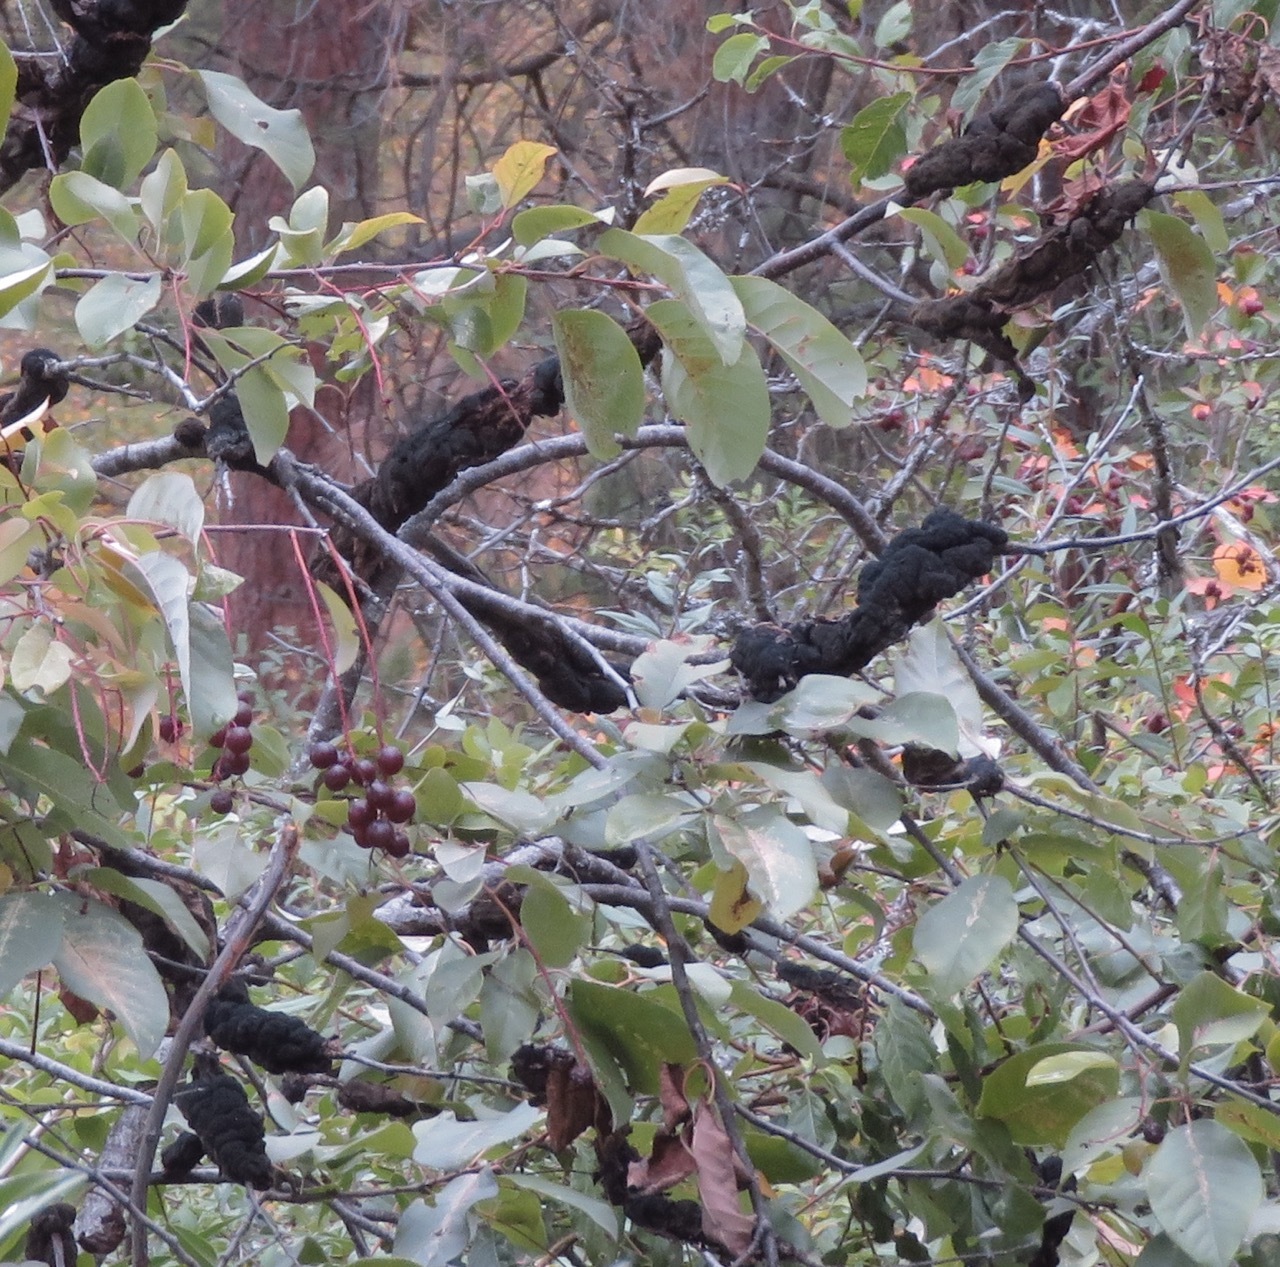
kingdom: Fungi
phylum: Ascomycota
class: Dothideomycetes
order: Venturiales
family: Venturiaceae
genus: Apiosporina
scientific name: Apiosporina morbosa
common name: Black knot
